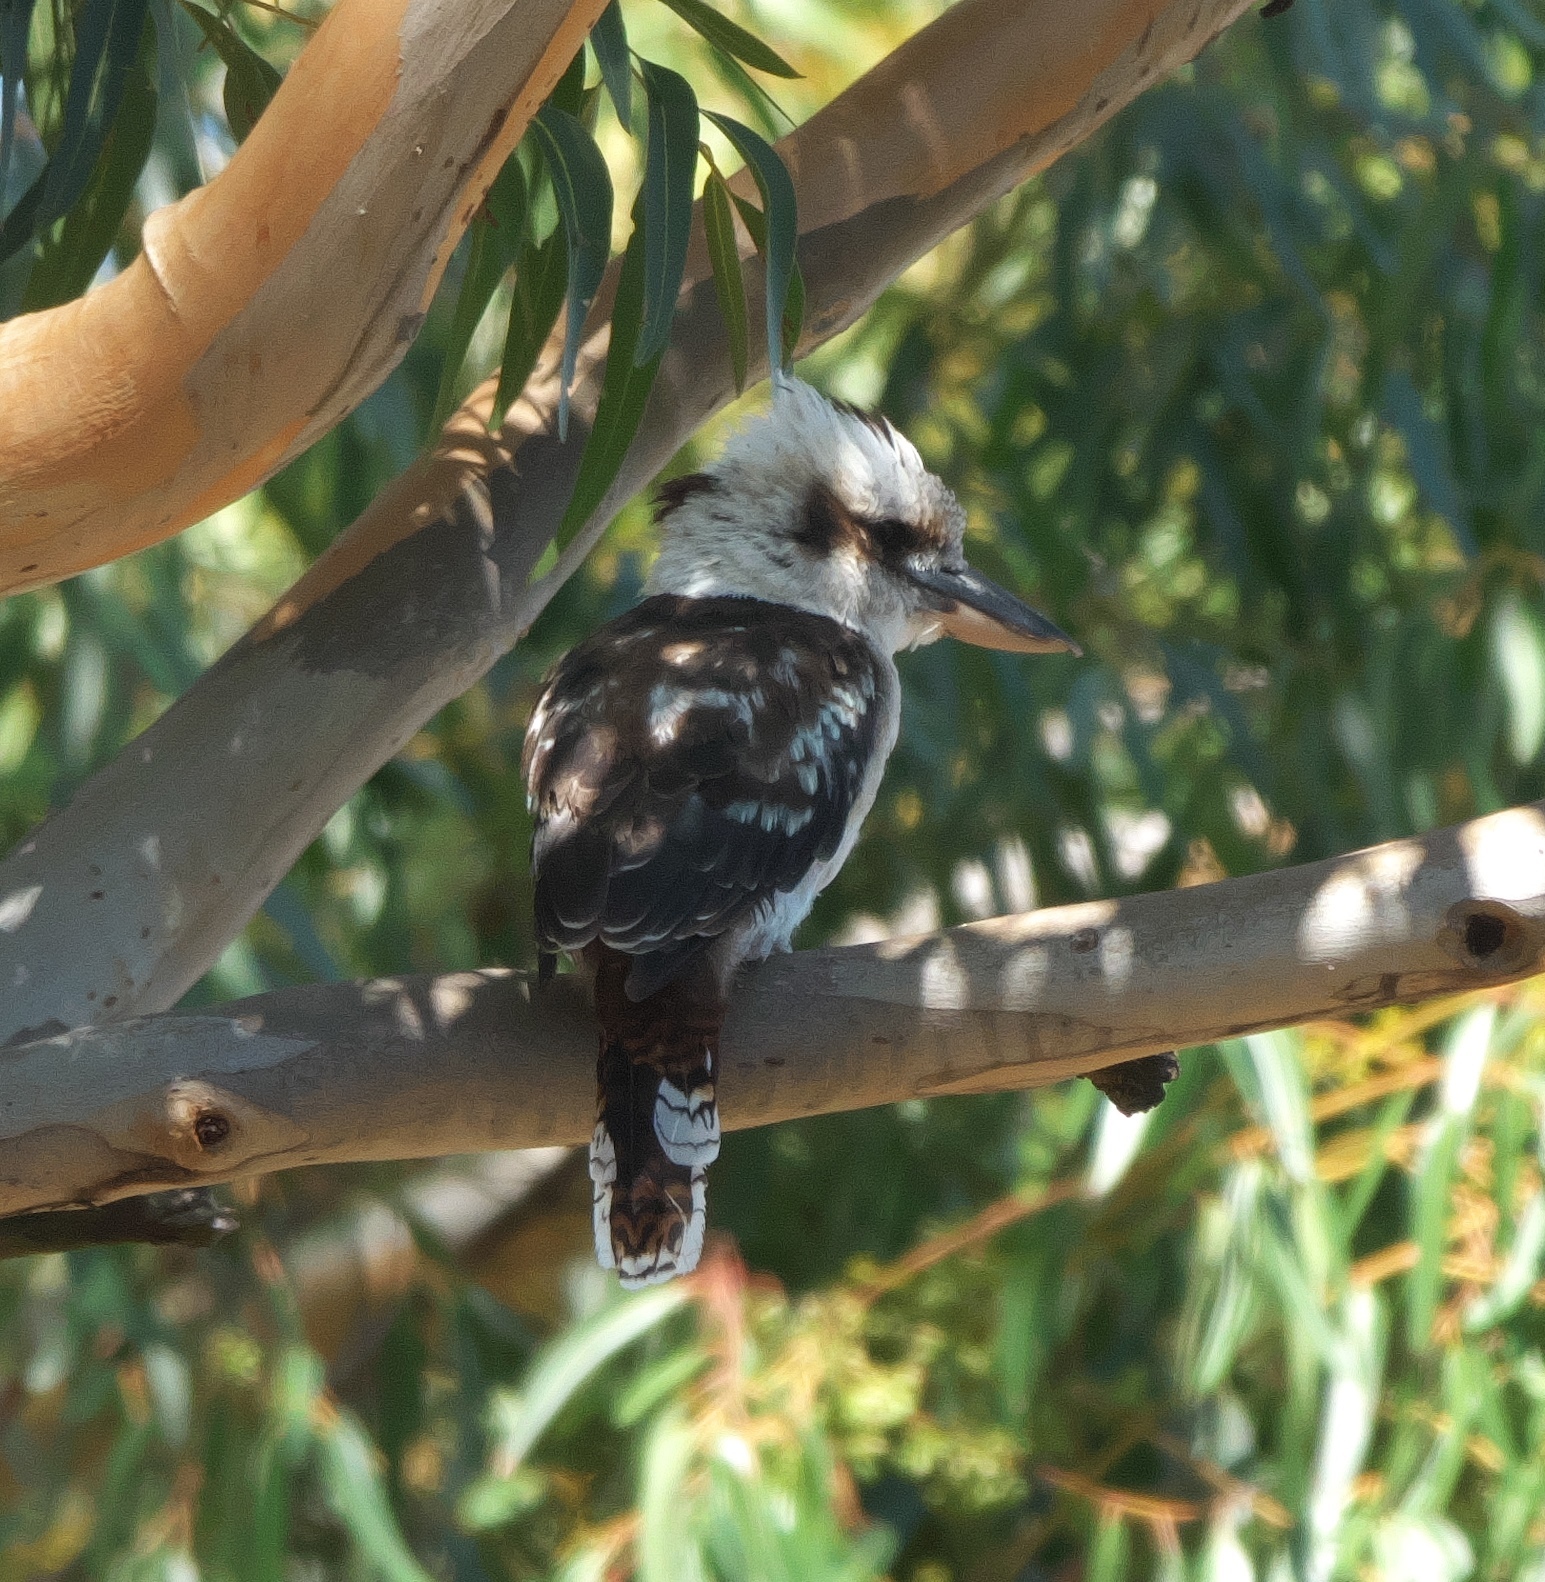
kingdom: Animalia
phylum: Chordata
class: Aves
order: Coraciiformes
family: Alcedinidae
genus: Dacelo
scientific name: Dacelo novaeguineae
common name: Laughing kookaburra
